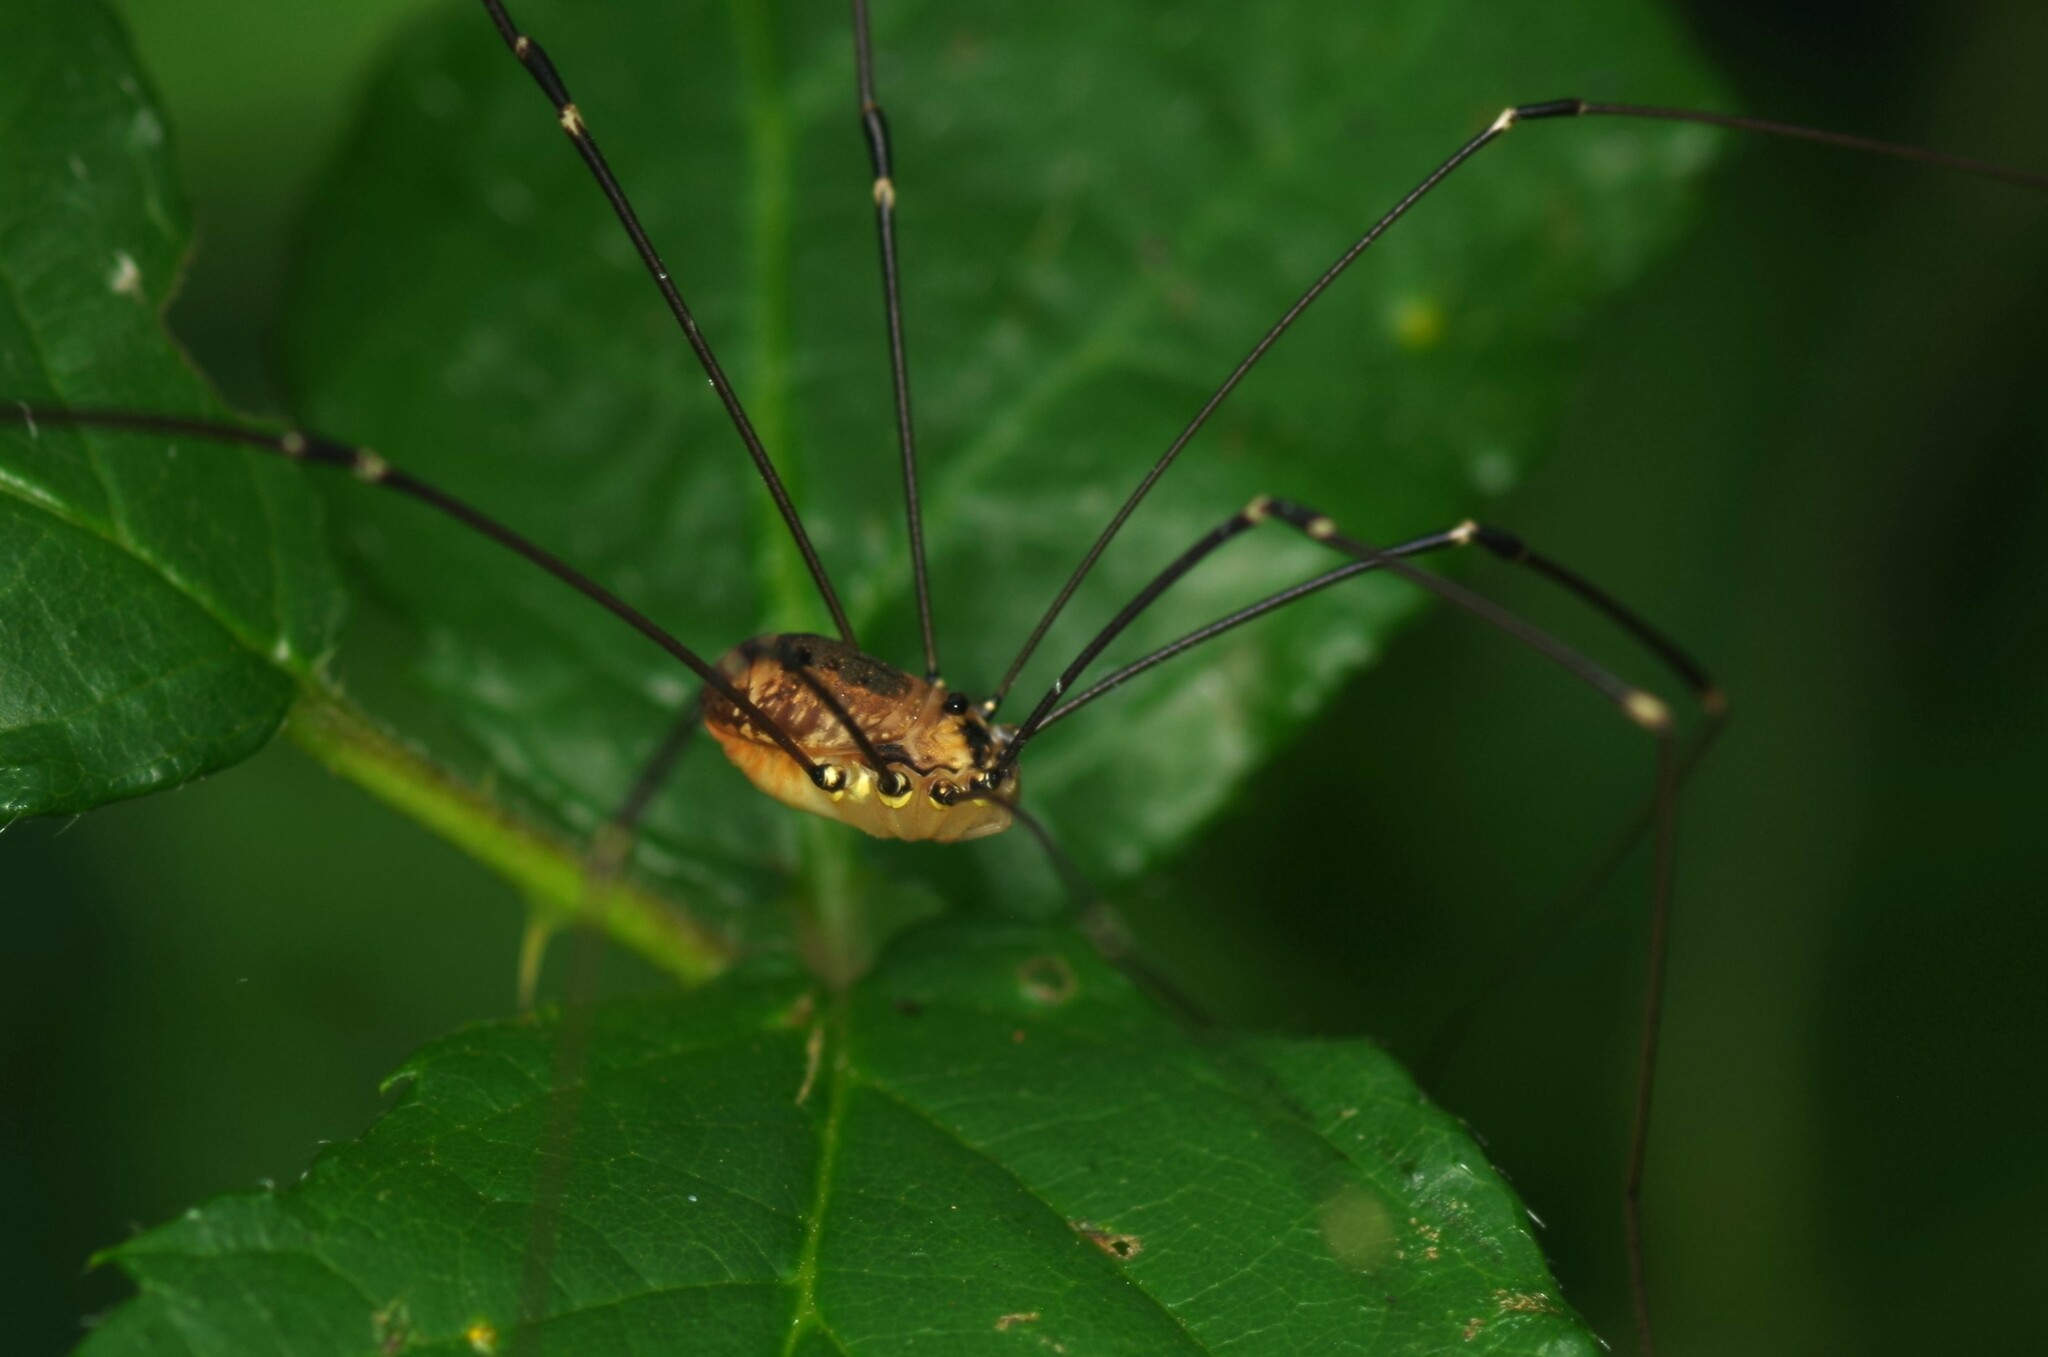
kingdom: Animalia
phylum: Arthropoda
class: Arachnida
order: Opiliones
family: Sclerosomatidae
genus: Leiobunum
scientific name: Leiobunum rotundum
